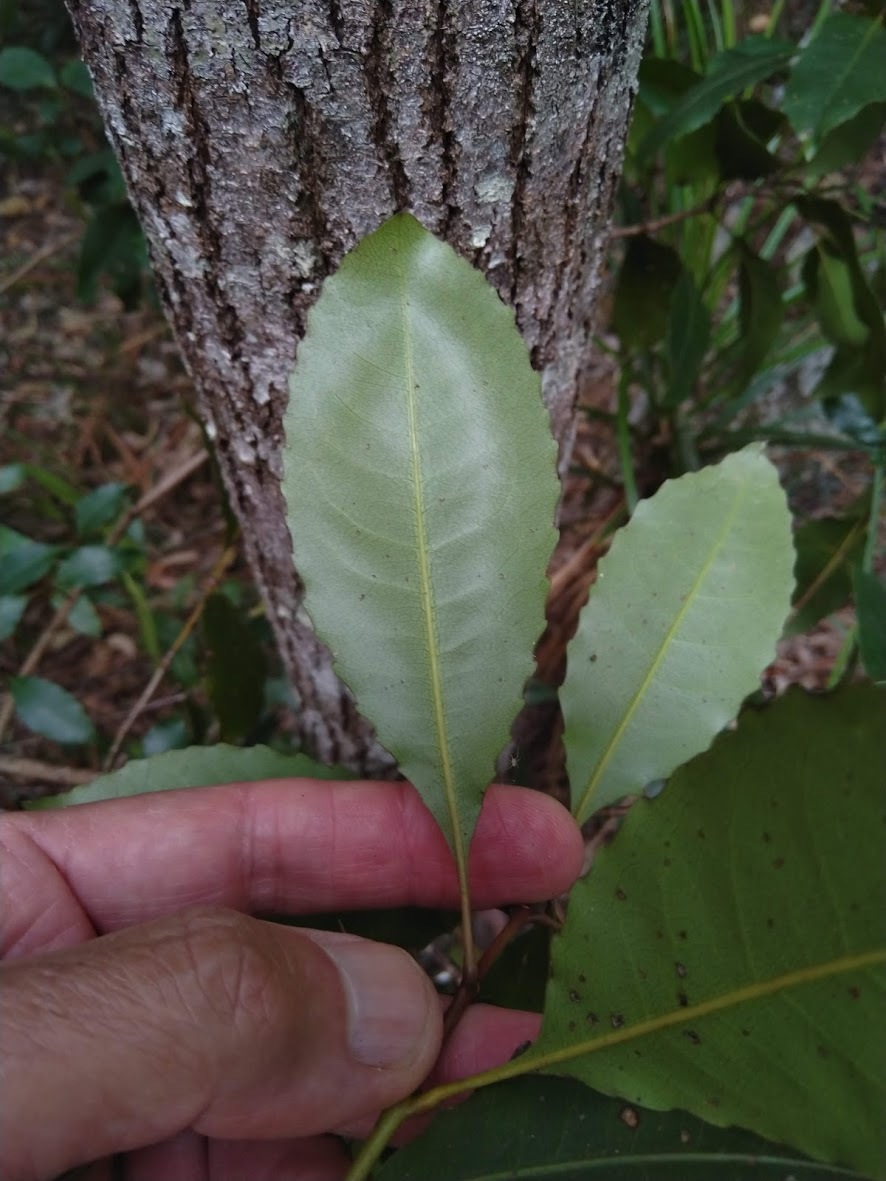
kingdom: Plantae
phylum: Tracheophyta
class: Magnoliopsida
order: Oxalidales
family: Cunoniaceae
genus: Schizomeria
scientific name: Schizomeria ovata
